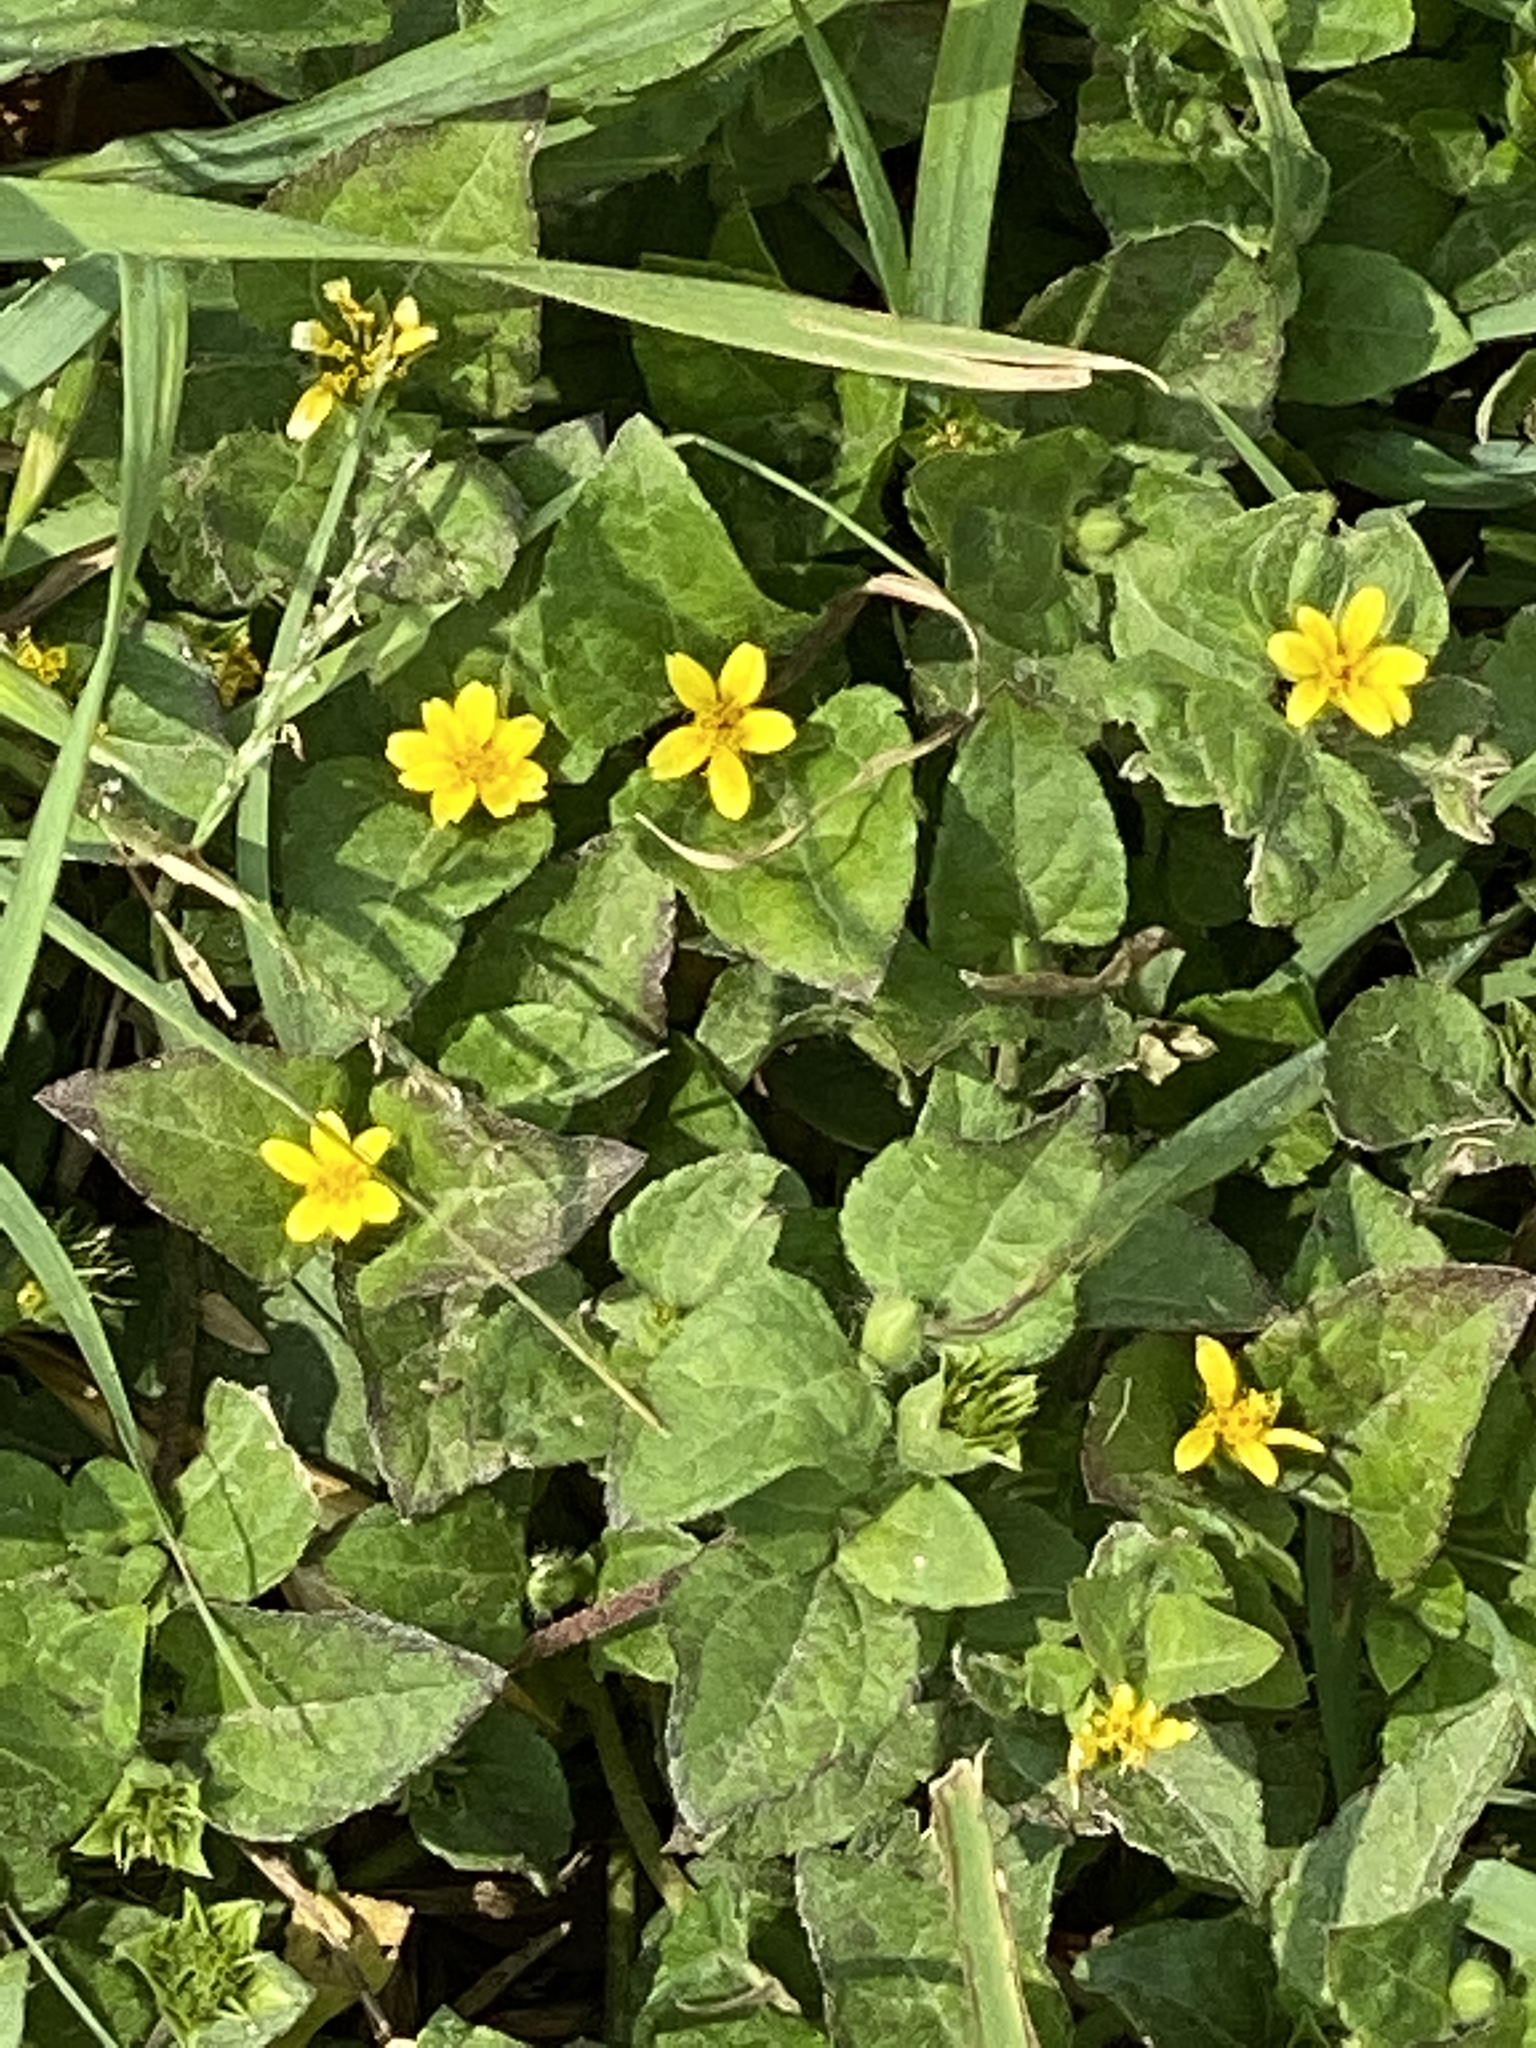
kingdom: Plantae
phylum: Tracheophyta
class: Magnoliopsida
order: Asterales
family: Asteraceae
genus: Calyptocarpus
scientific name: Calyptocarpus vialis
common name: Straggler daisy
